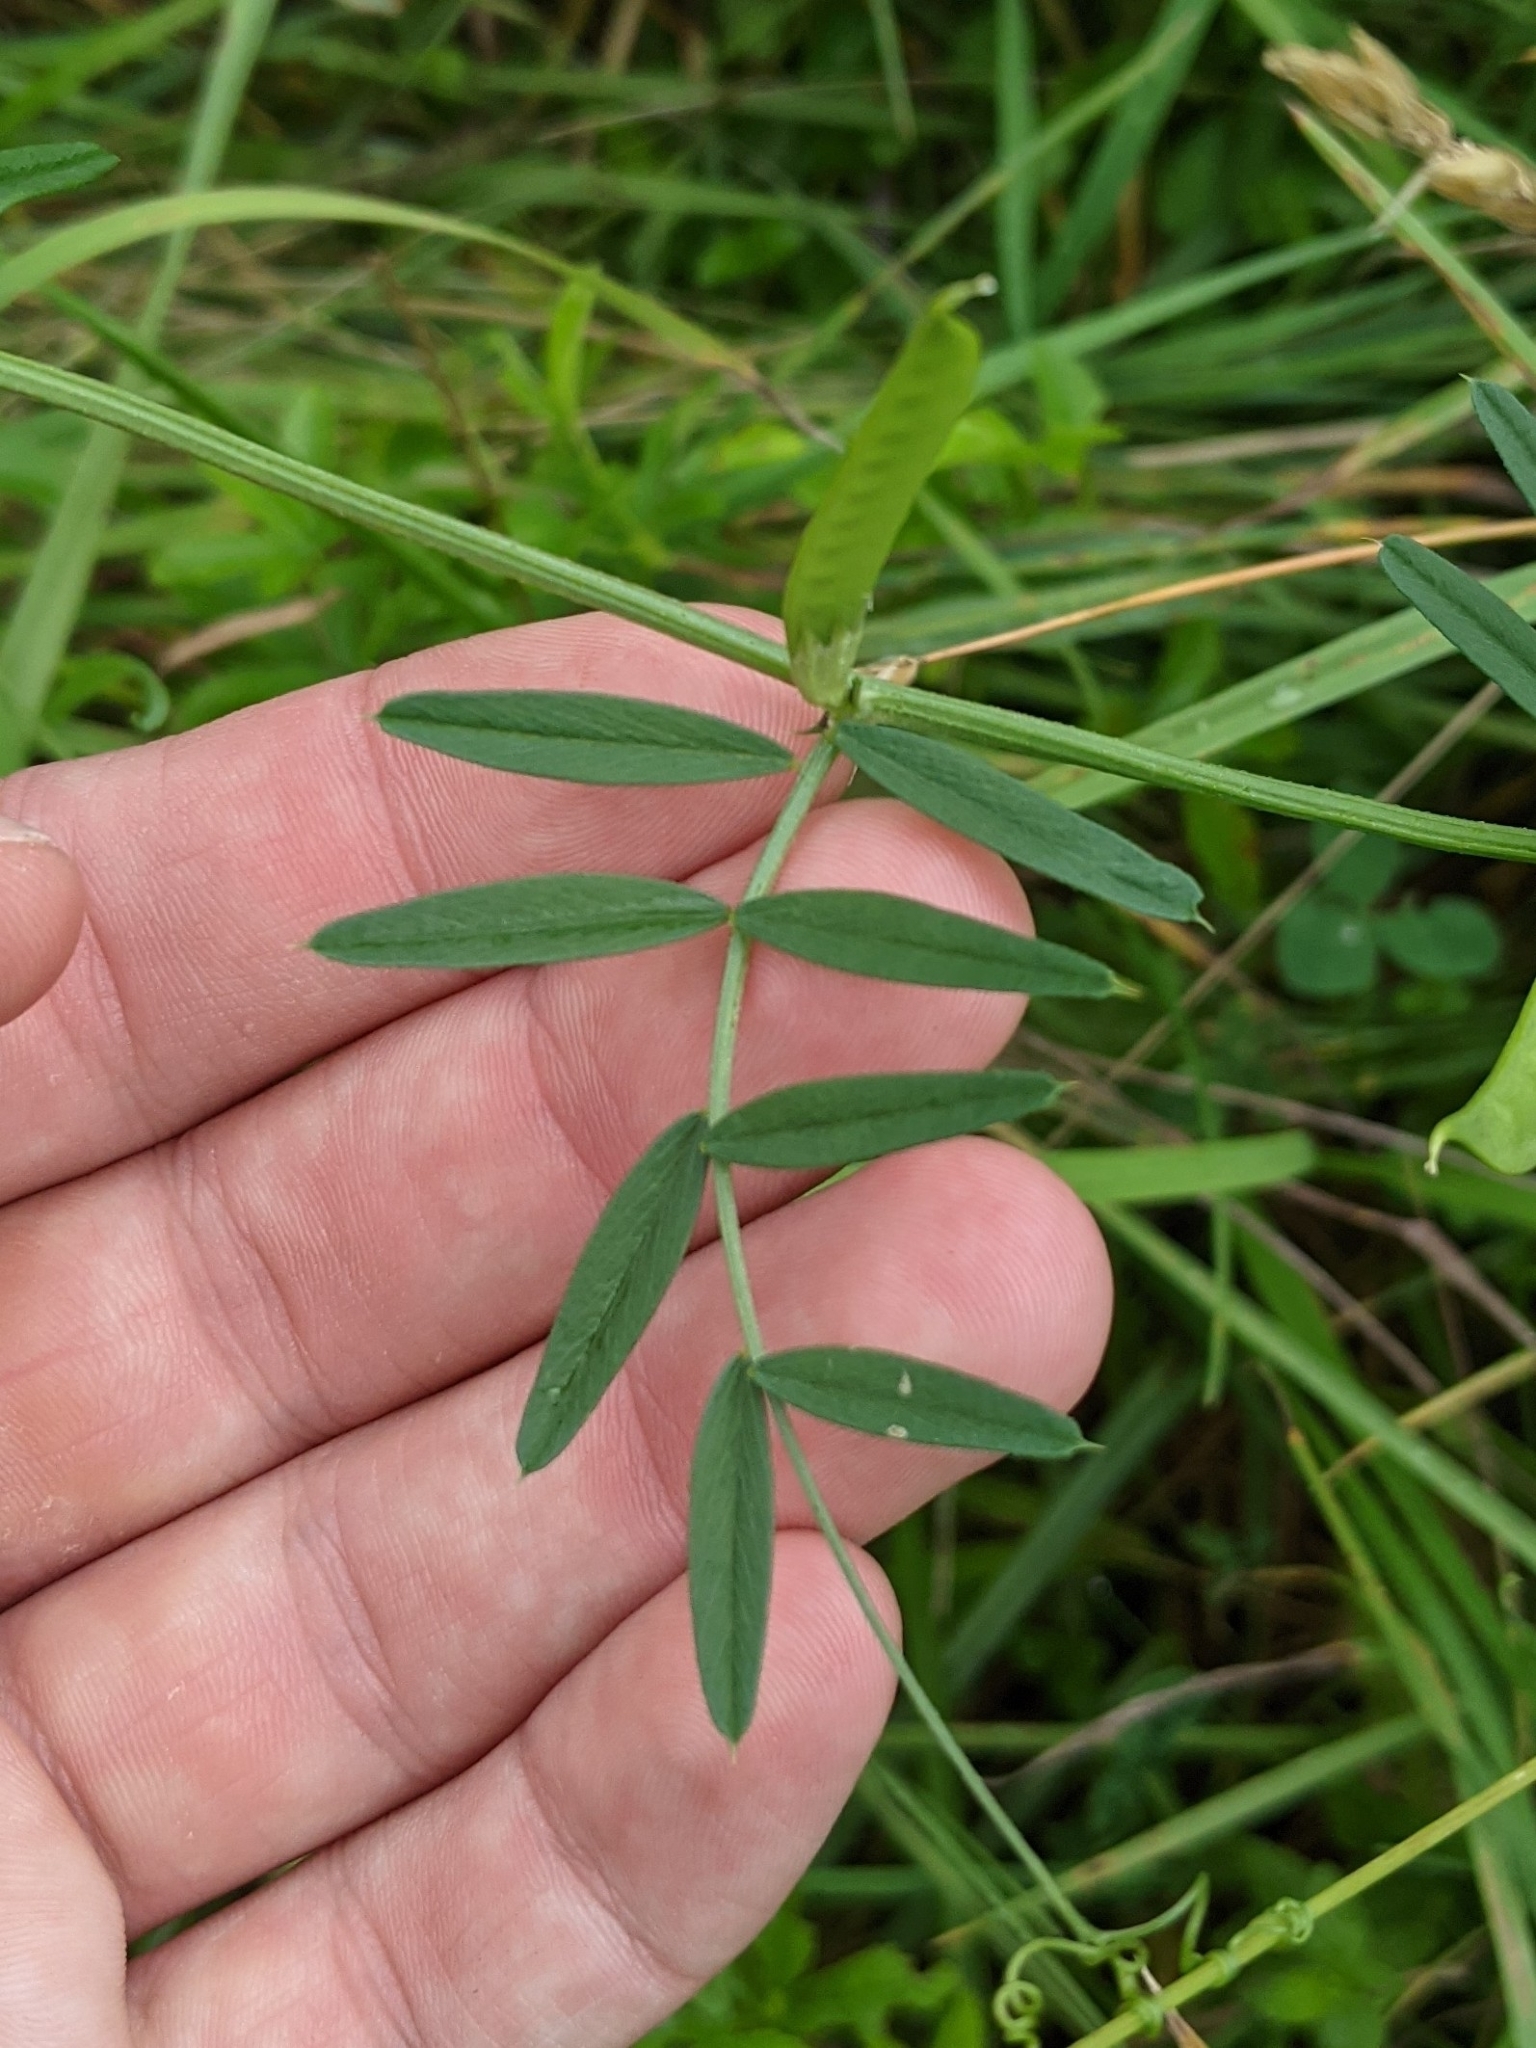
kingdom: Plantae
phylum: Tracheophyta
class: Magnoliopsida
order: Fabales
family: Fabaceae
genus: Vicia
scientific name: Vicia sativa
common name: Garden vetch
